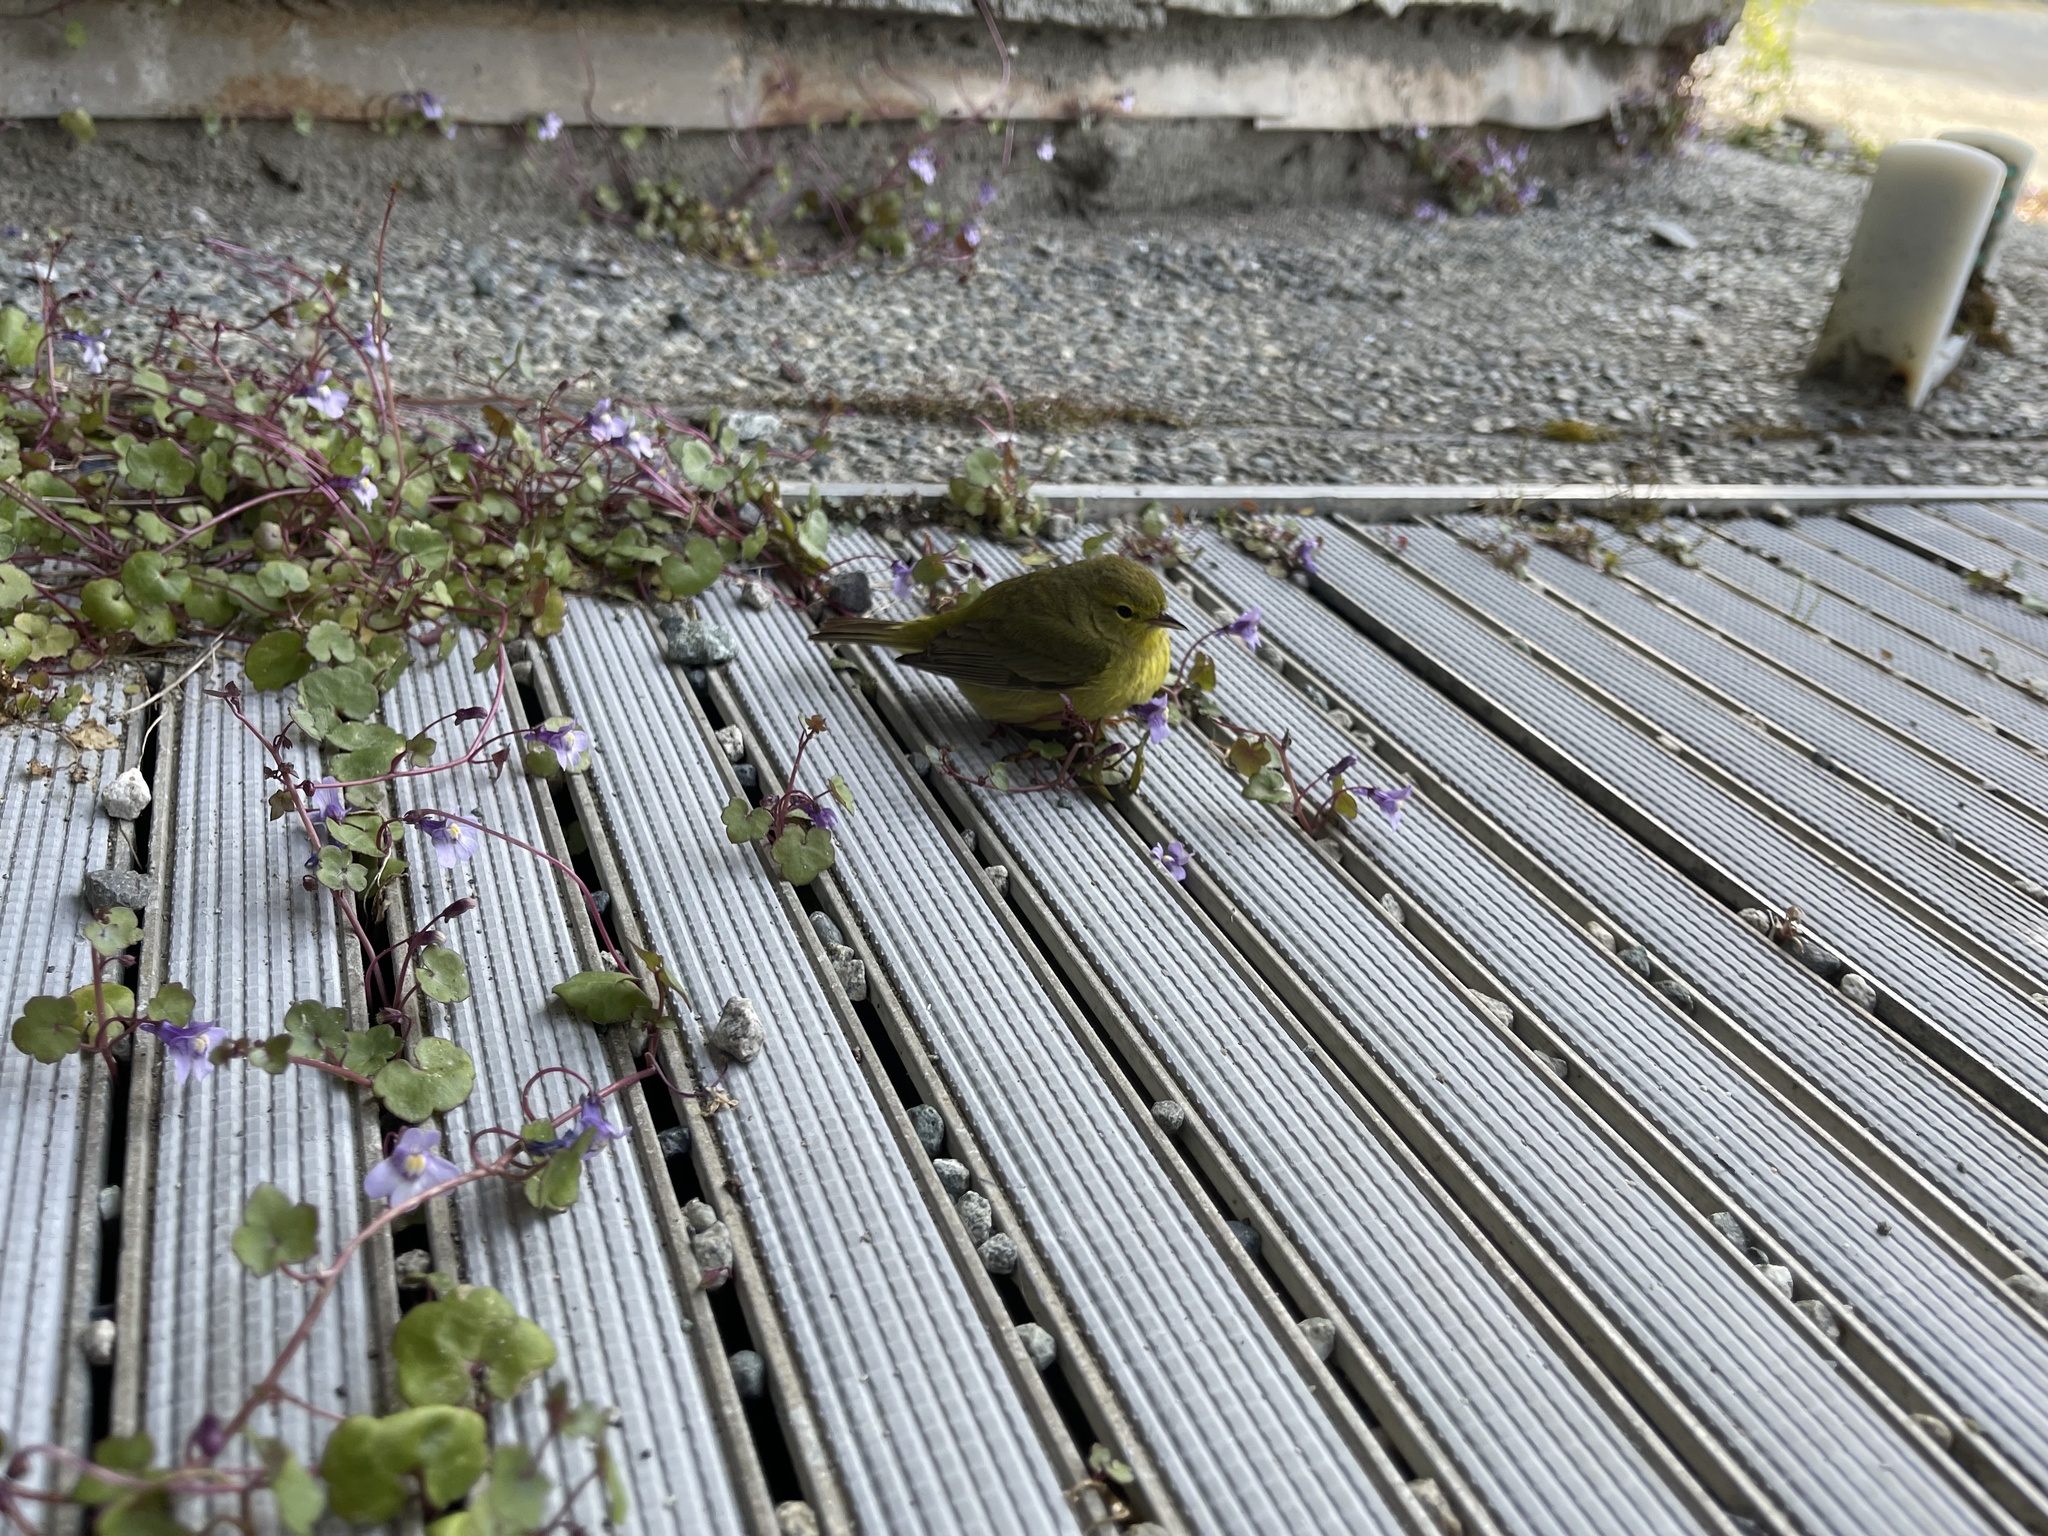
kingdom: Animalia
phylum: Chordata
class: Aves
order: Passeriformes
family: Parulidae
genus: Leiothlypis
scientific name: Leiothlypis celata
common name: Orange-crowned warbler
